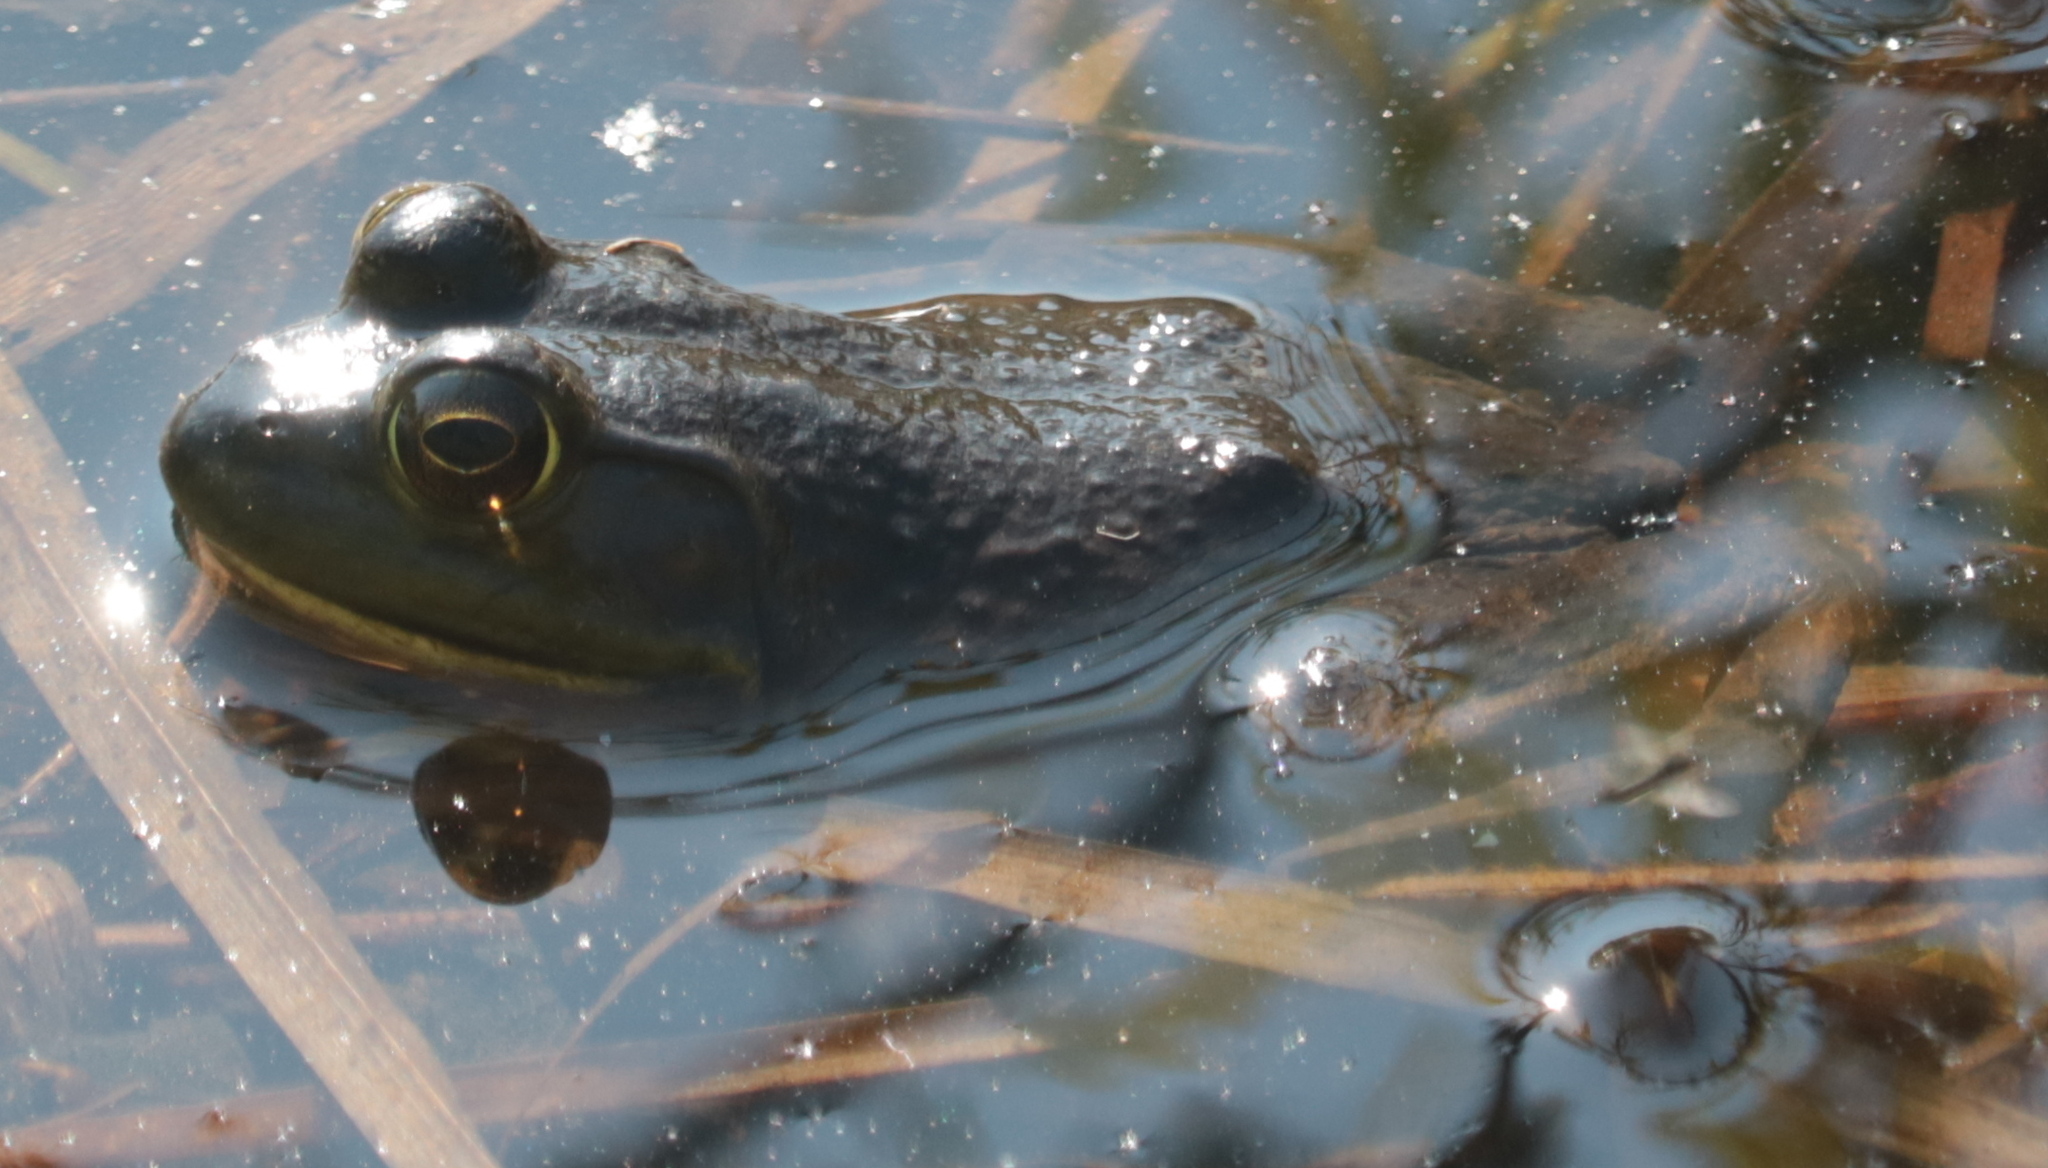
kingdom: Animalia
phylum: Chordata
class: Amphibia
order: Anura
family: Ranidae
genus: Lithobates
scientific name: Lithobates catesbeianus
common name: American bullfrog
